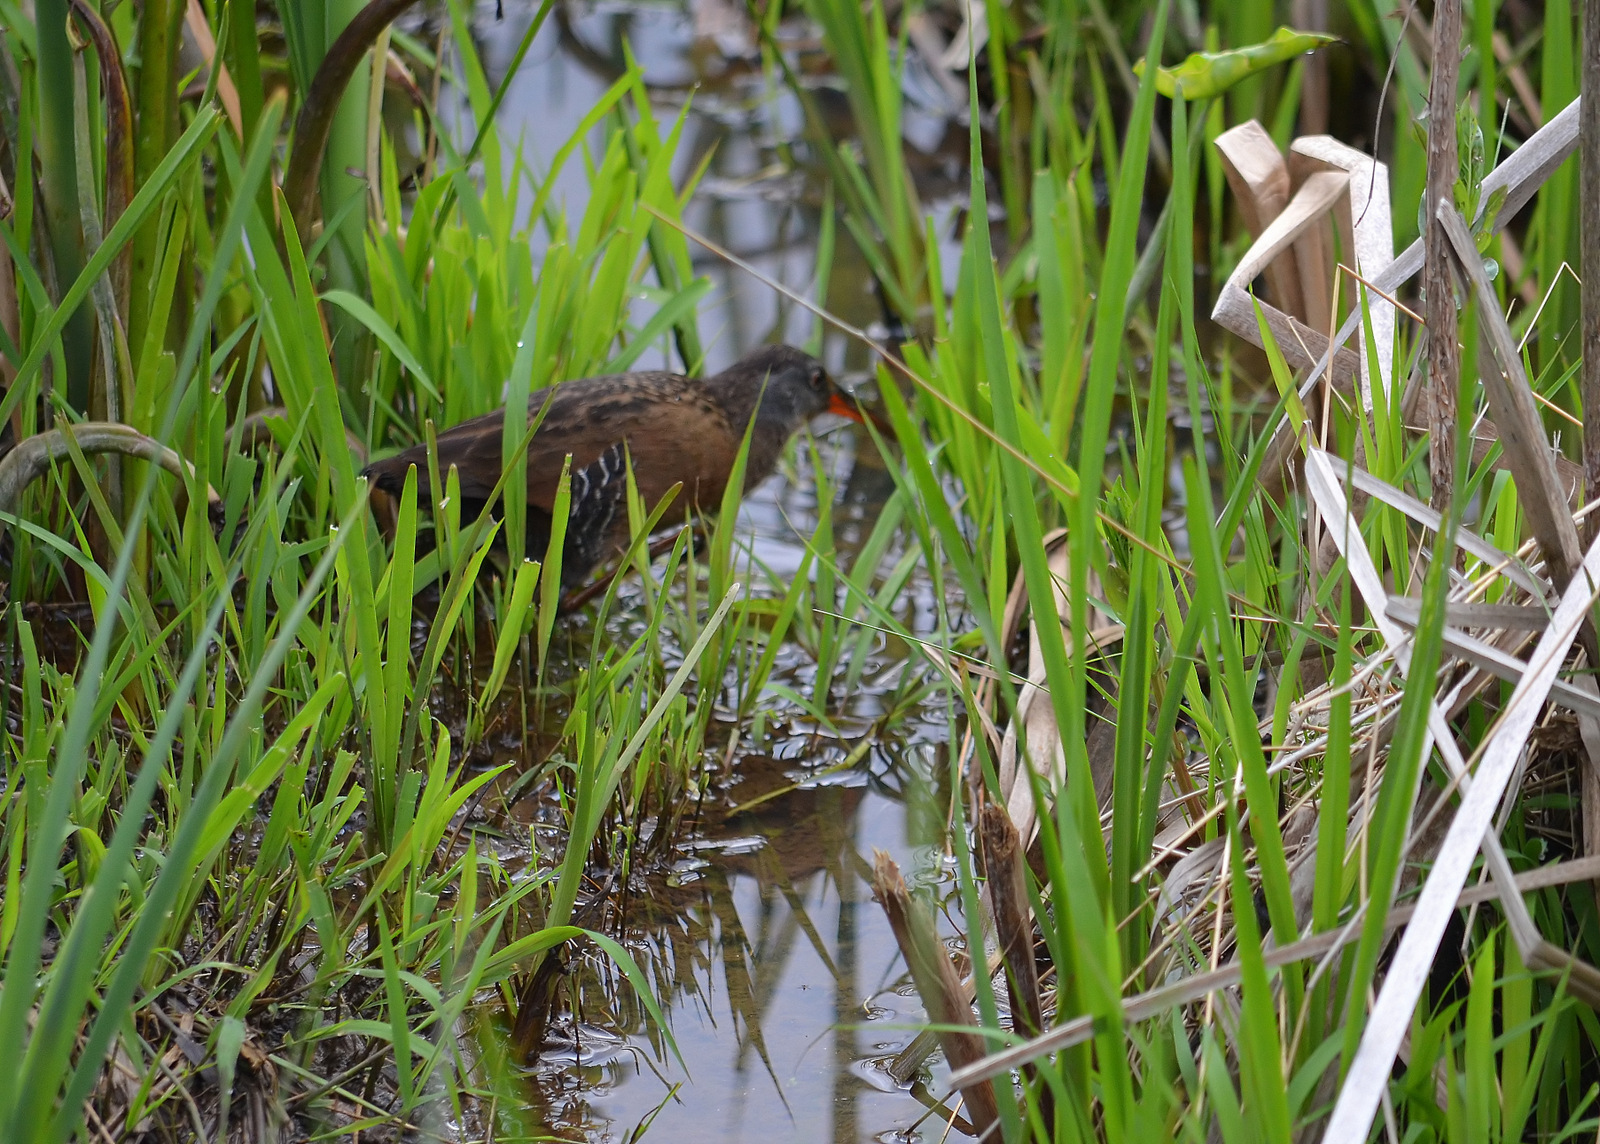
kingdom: Animalia
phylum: Chordata
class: Aves
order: Gruiformes
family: Rallidae
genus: Rallus
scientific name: Rallus limicola
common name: Virginia rail
